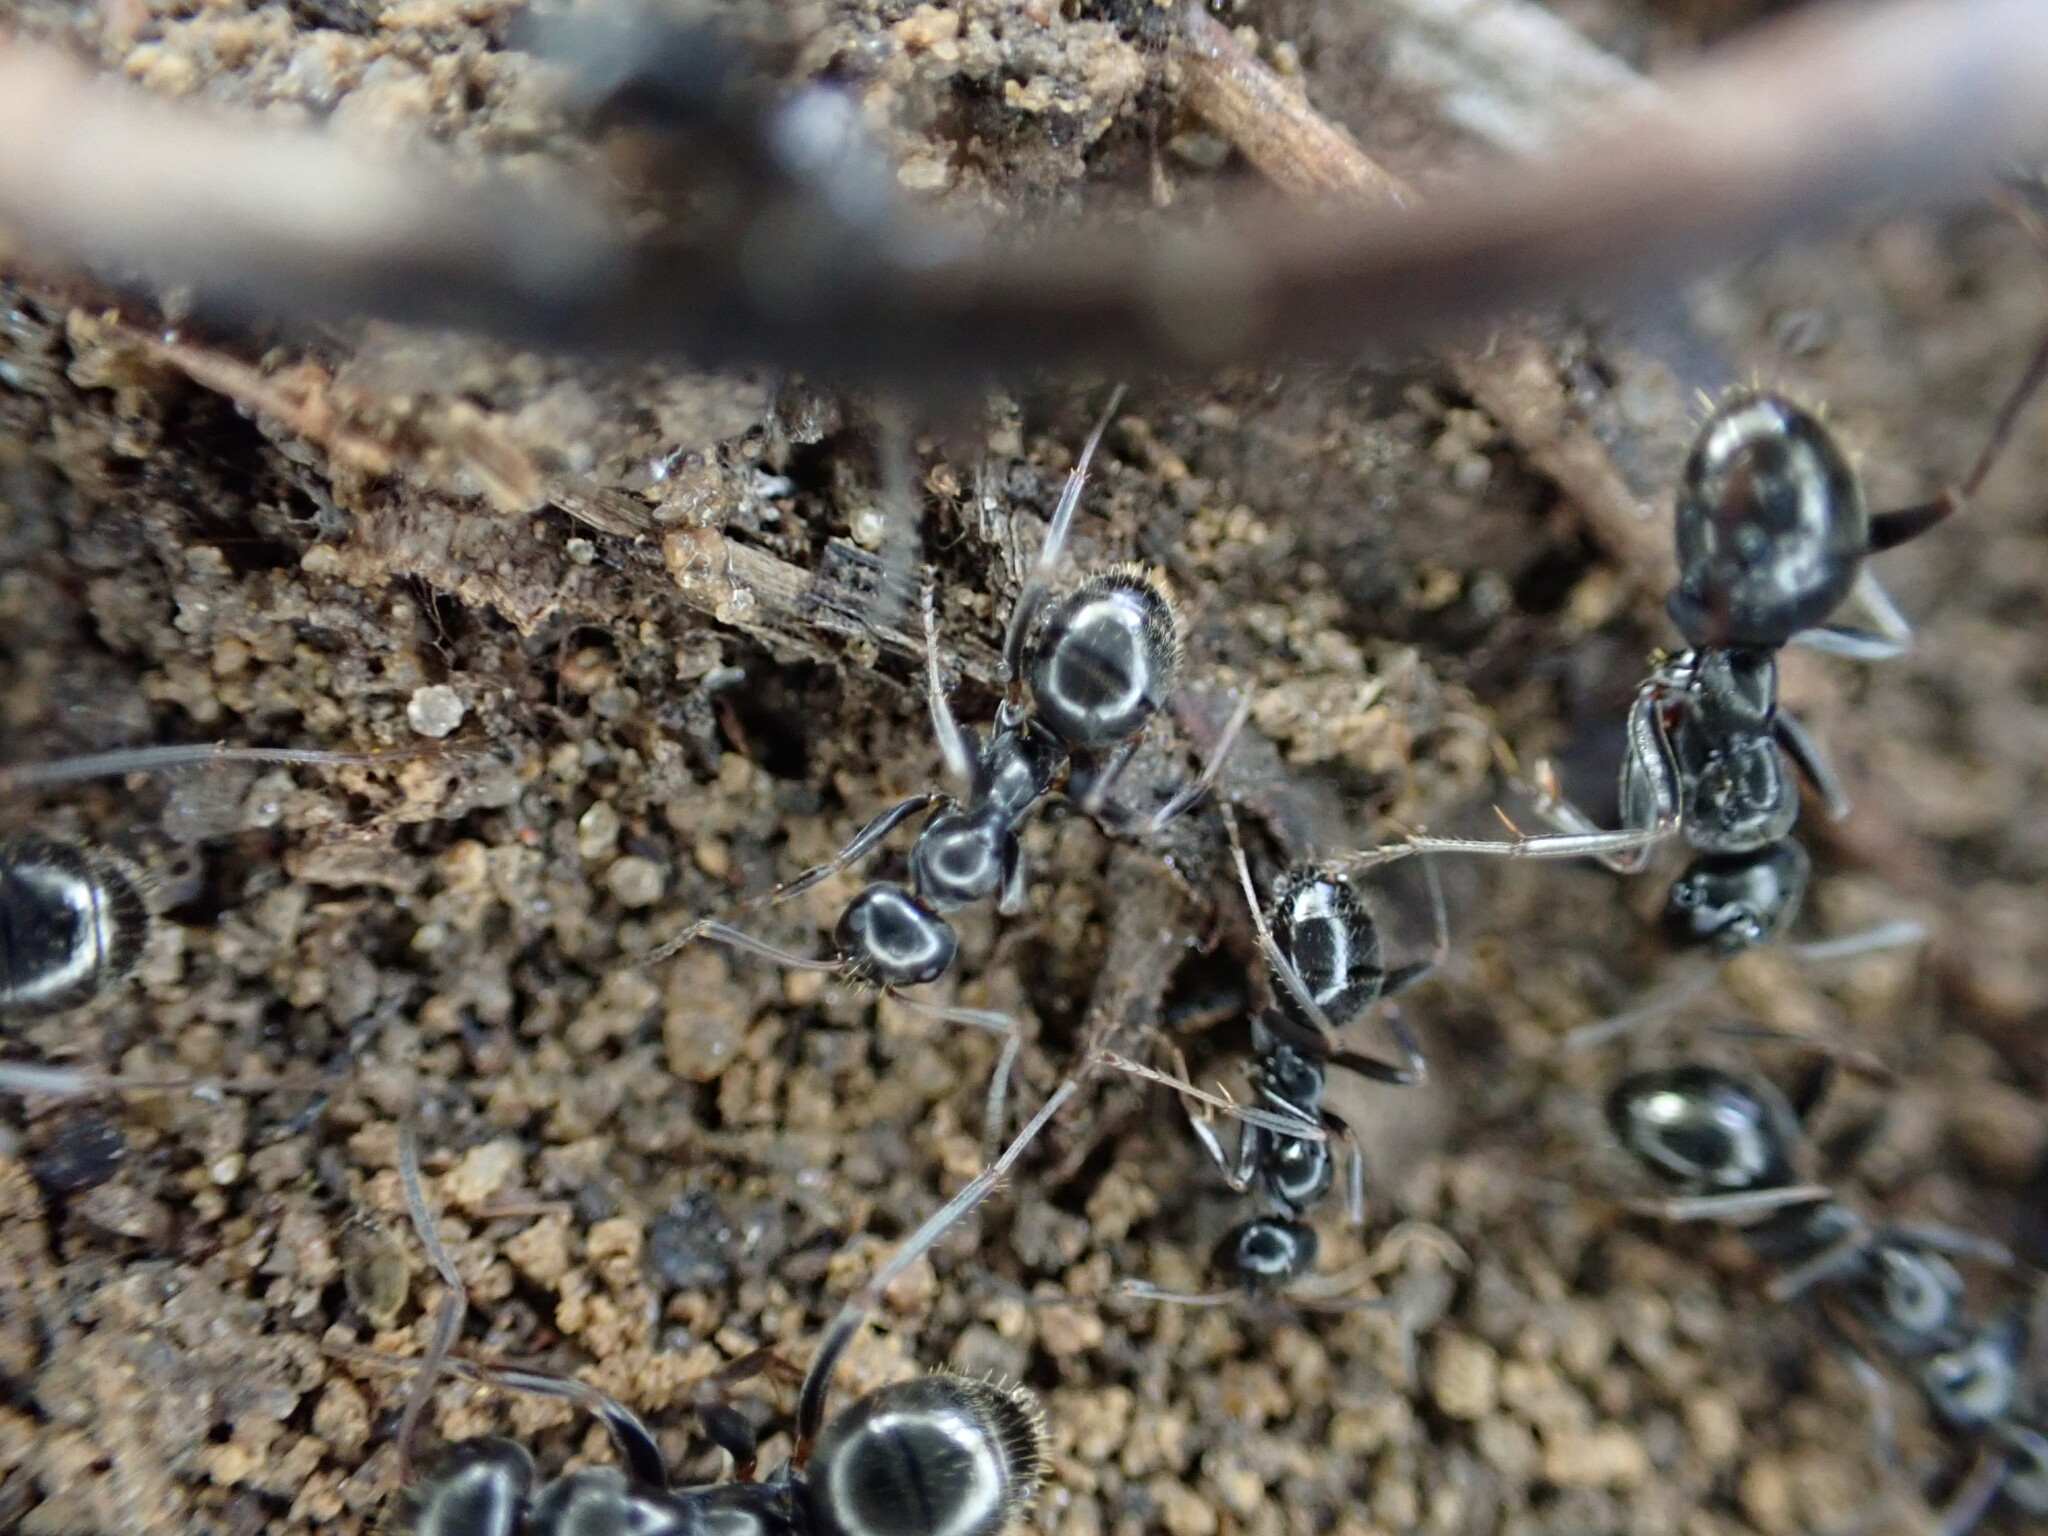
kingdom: Animalia
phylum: Arthropoda
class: Insecta
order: Hymenoptera
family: Formicidae
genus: Formica
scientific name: Formica gagates
